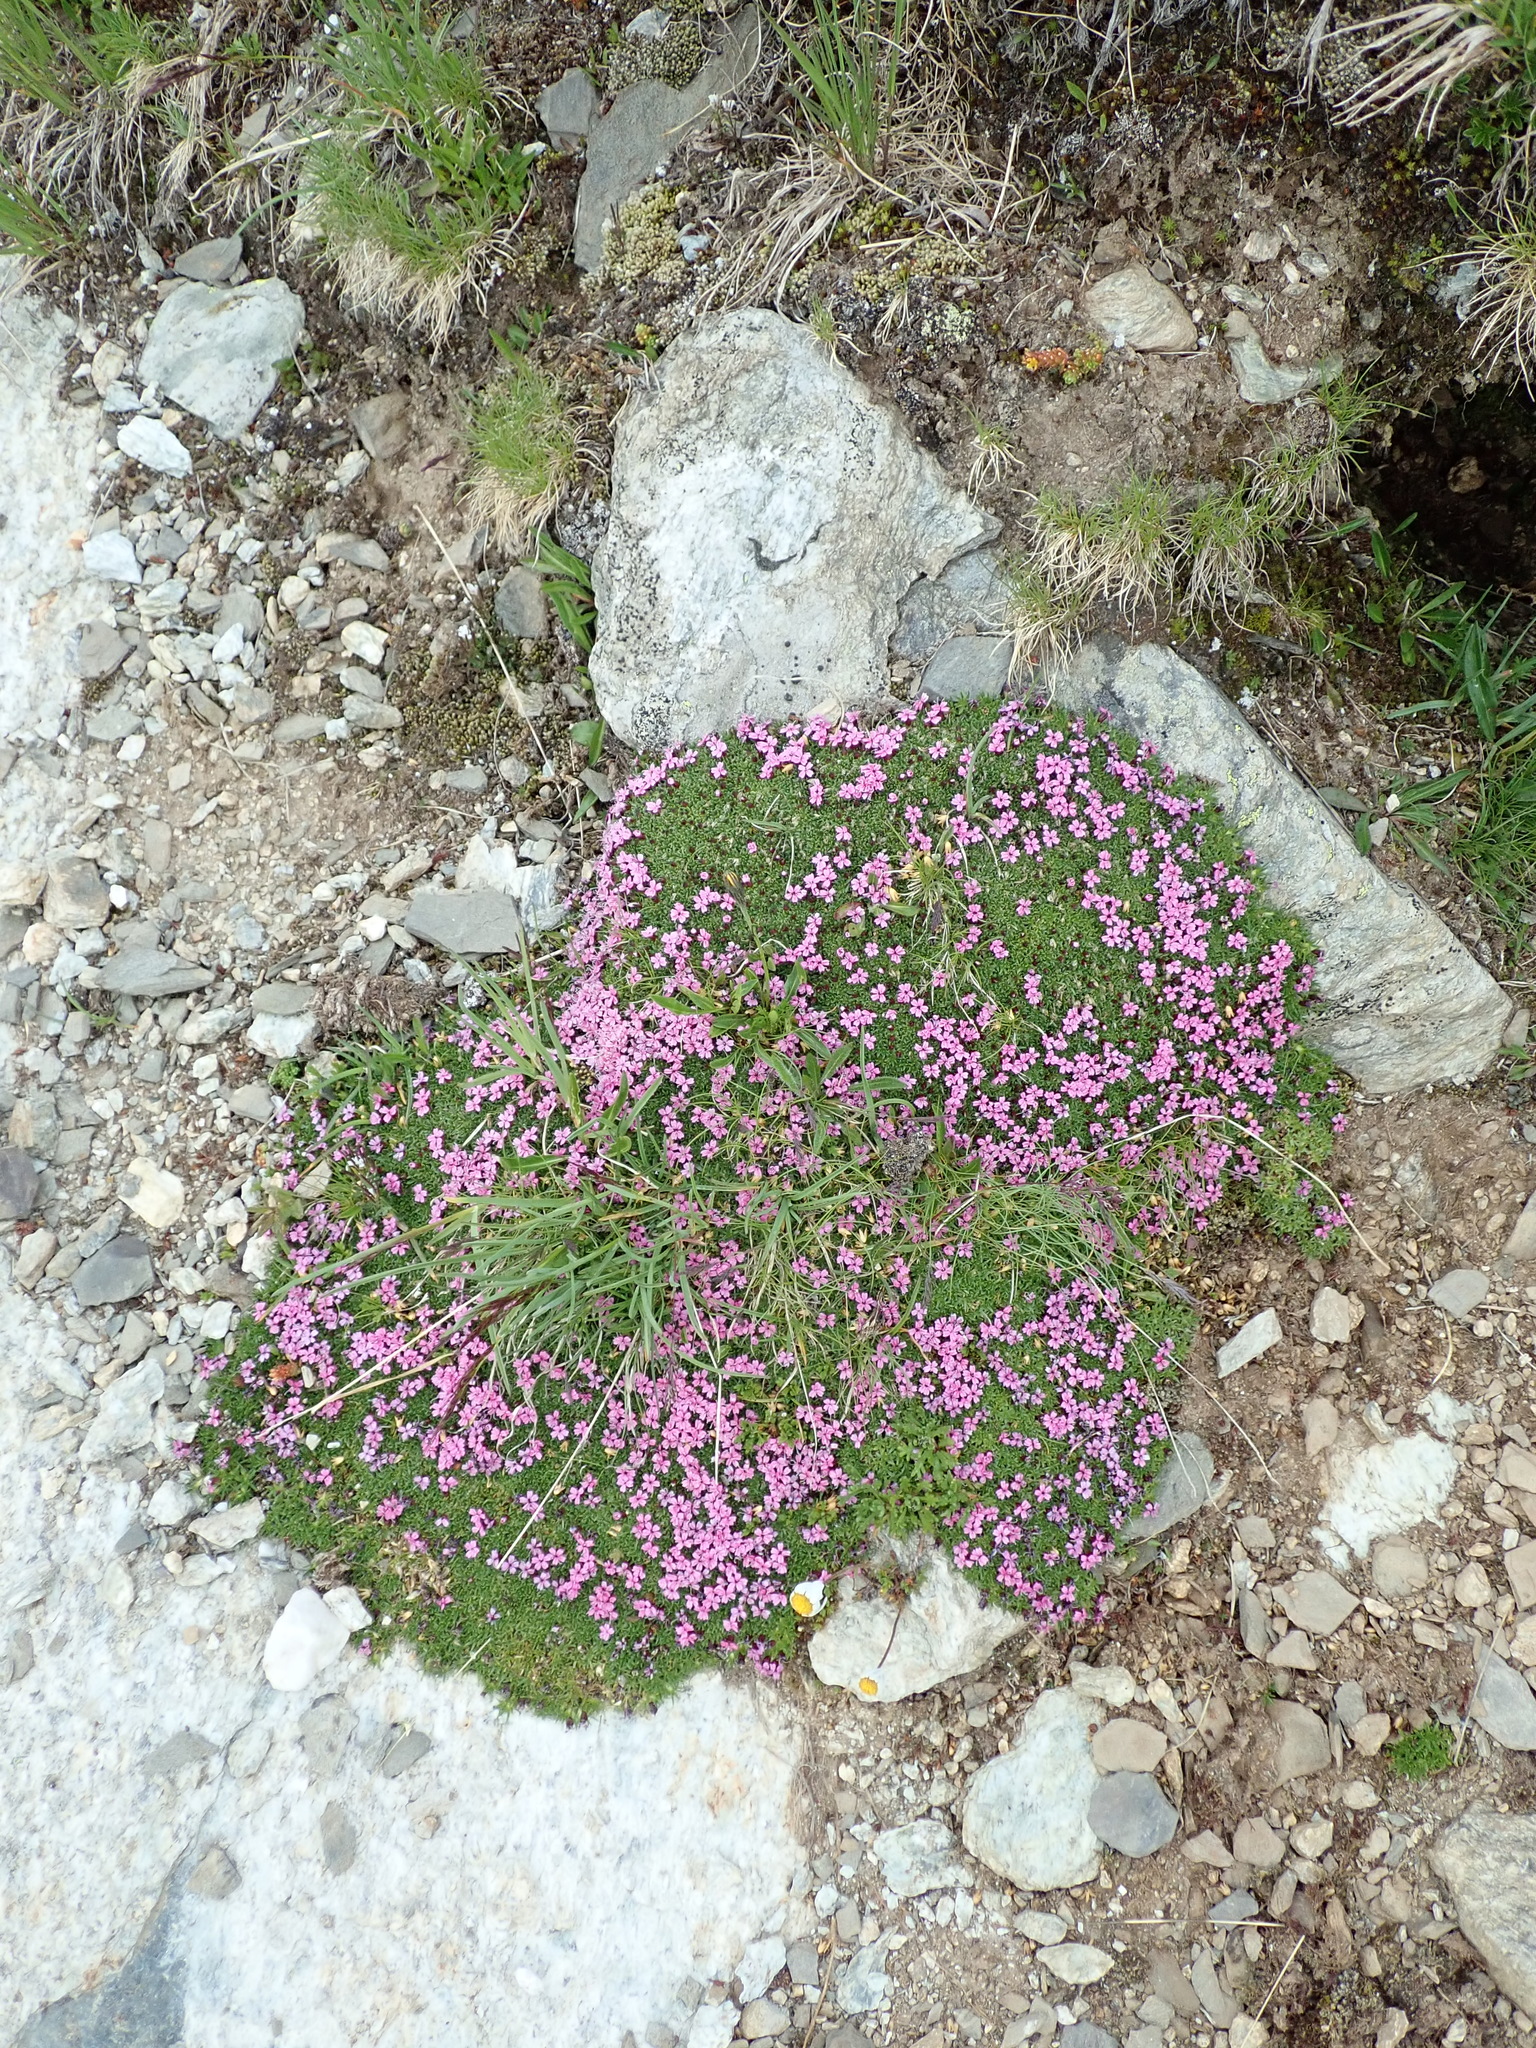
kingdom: Plantae
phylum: Tracheophyta
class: Magnoliopsida
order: Caryophyllales
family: Caryophyllaceae
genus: Silene
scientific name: Silene acaulis
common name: Moss campion
